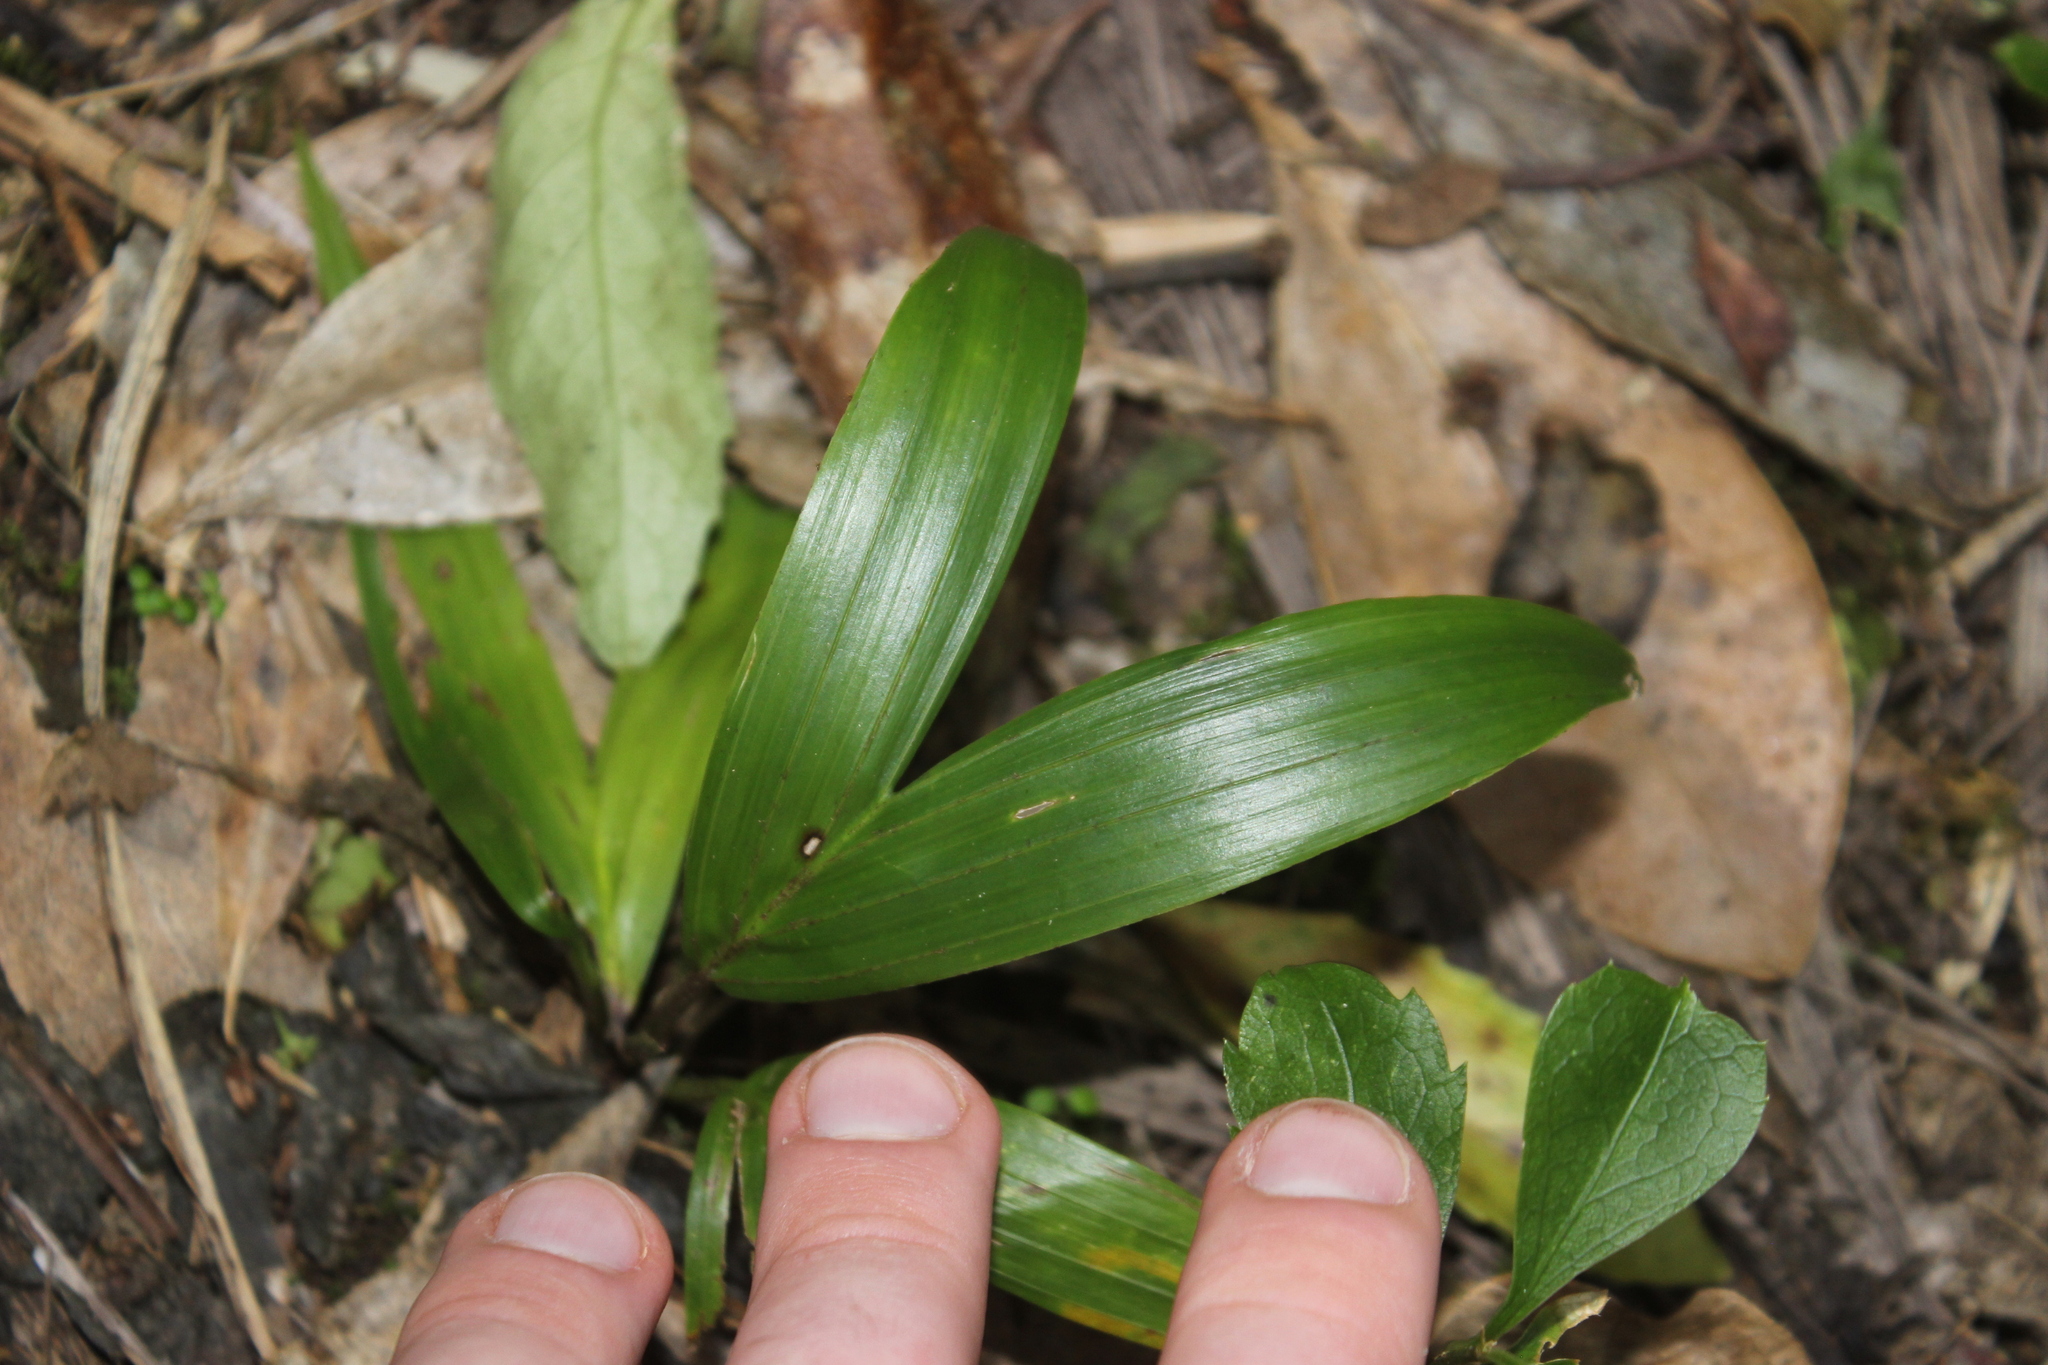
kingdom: Plantae
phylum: Tracheophyta
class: Liliopsida
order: Arecales
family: Arecaceae
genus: Rhopalostylis
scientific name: Rhopalostylis sapida
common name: Feather-duster palm
